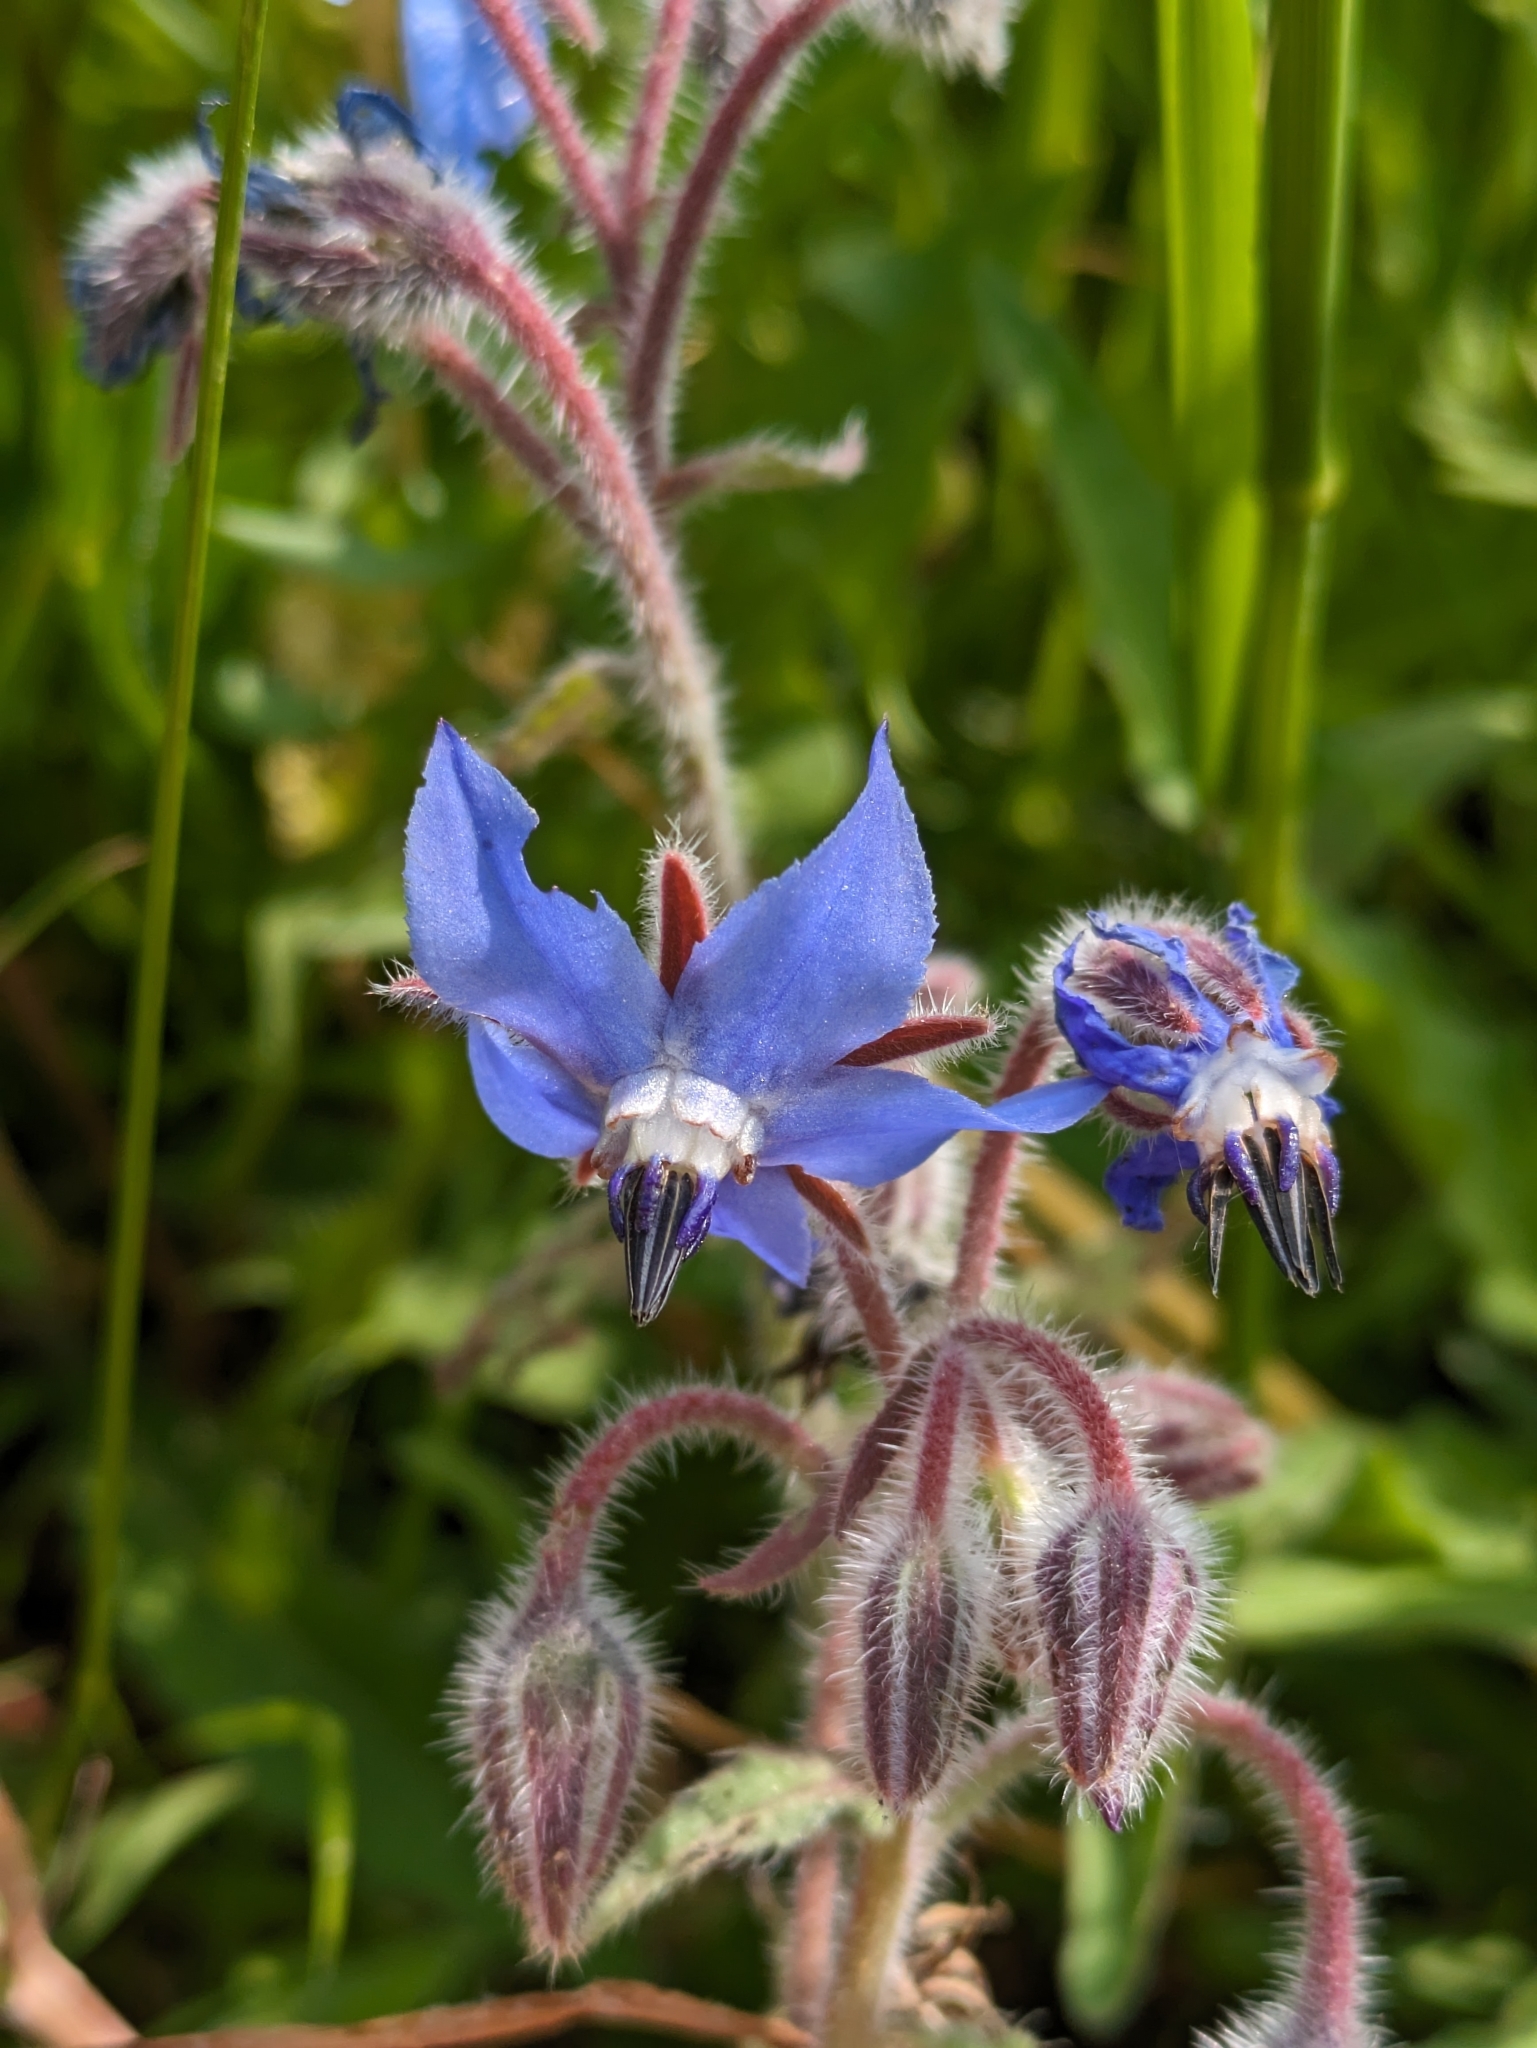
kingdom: Plantae
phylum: Tracheophyta
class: Magnoliopsida
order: Boraginales
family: Boraginaceae
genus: Borago
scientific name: Borago officinalis
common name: Borage
